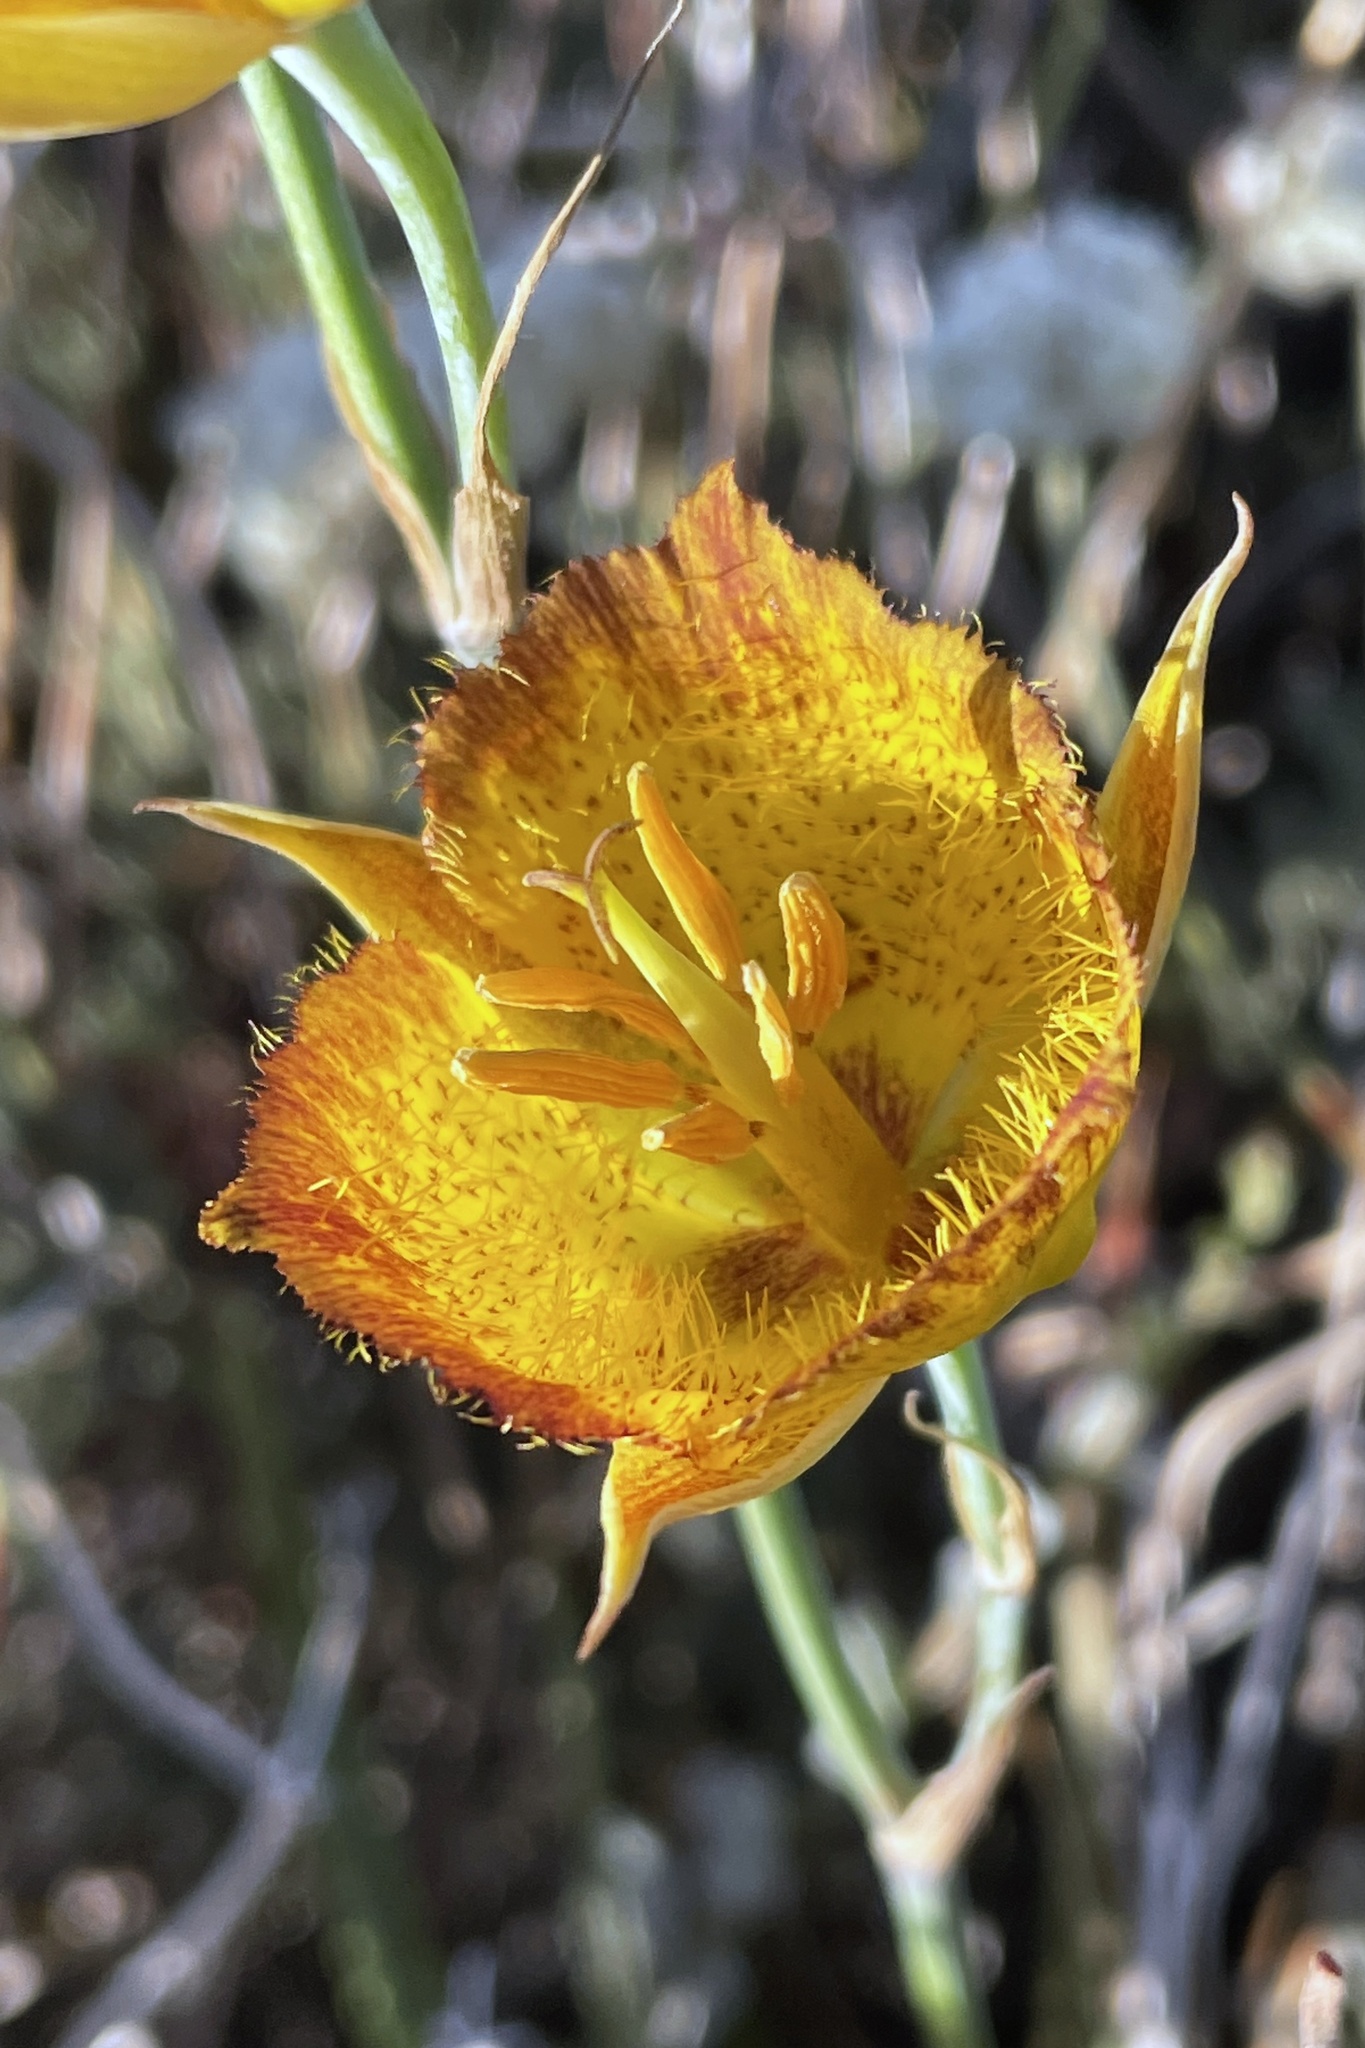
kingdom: Plantae
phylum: Tracheophyta
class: Liliopsida
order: Liliales
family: Liliaceae
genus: Calochortus
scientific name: Calochortus weedii
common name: Weed's mariposa-lily
